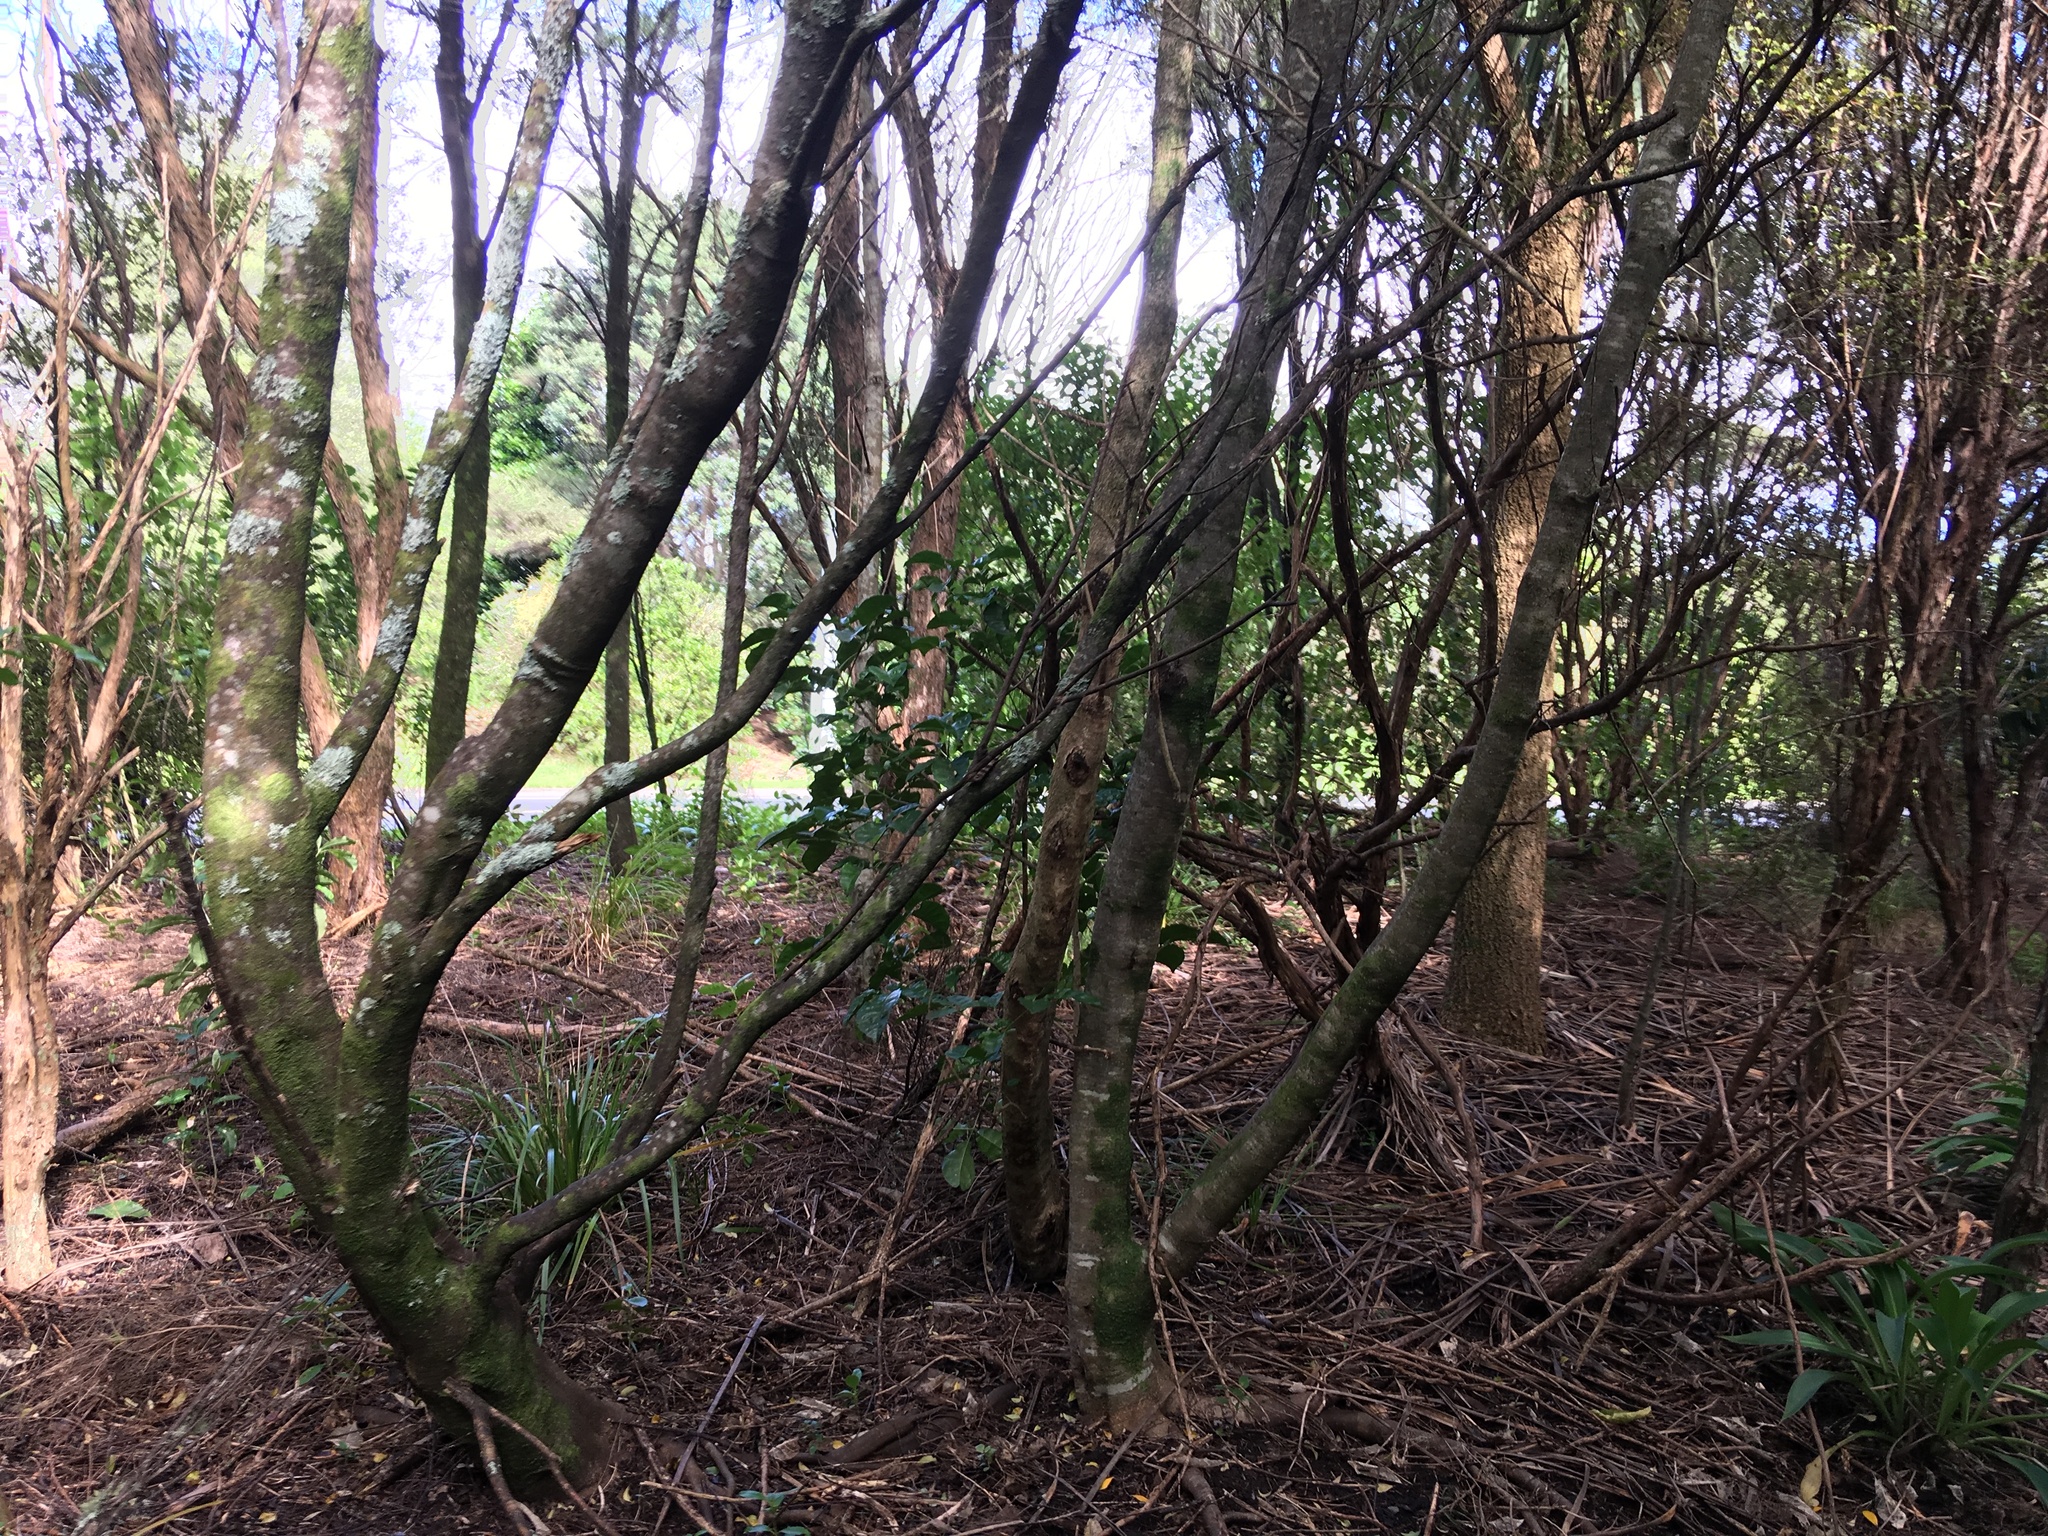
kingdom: Plantae
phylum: Tracheophyta
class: Liliopsida
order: Asparagales
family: Asparagaceae
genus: Cordyline
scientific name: Cordyline australis
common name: Cabbage-palm
